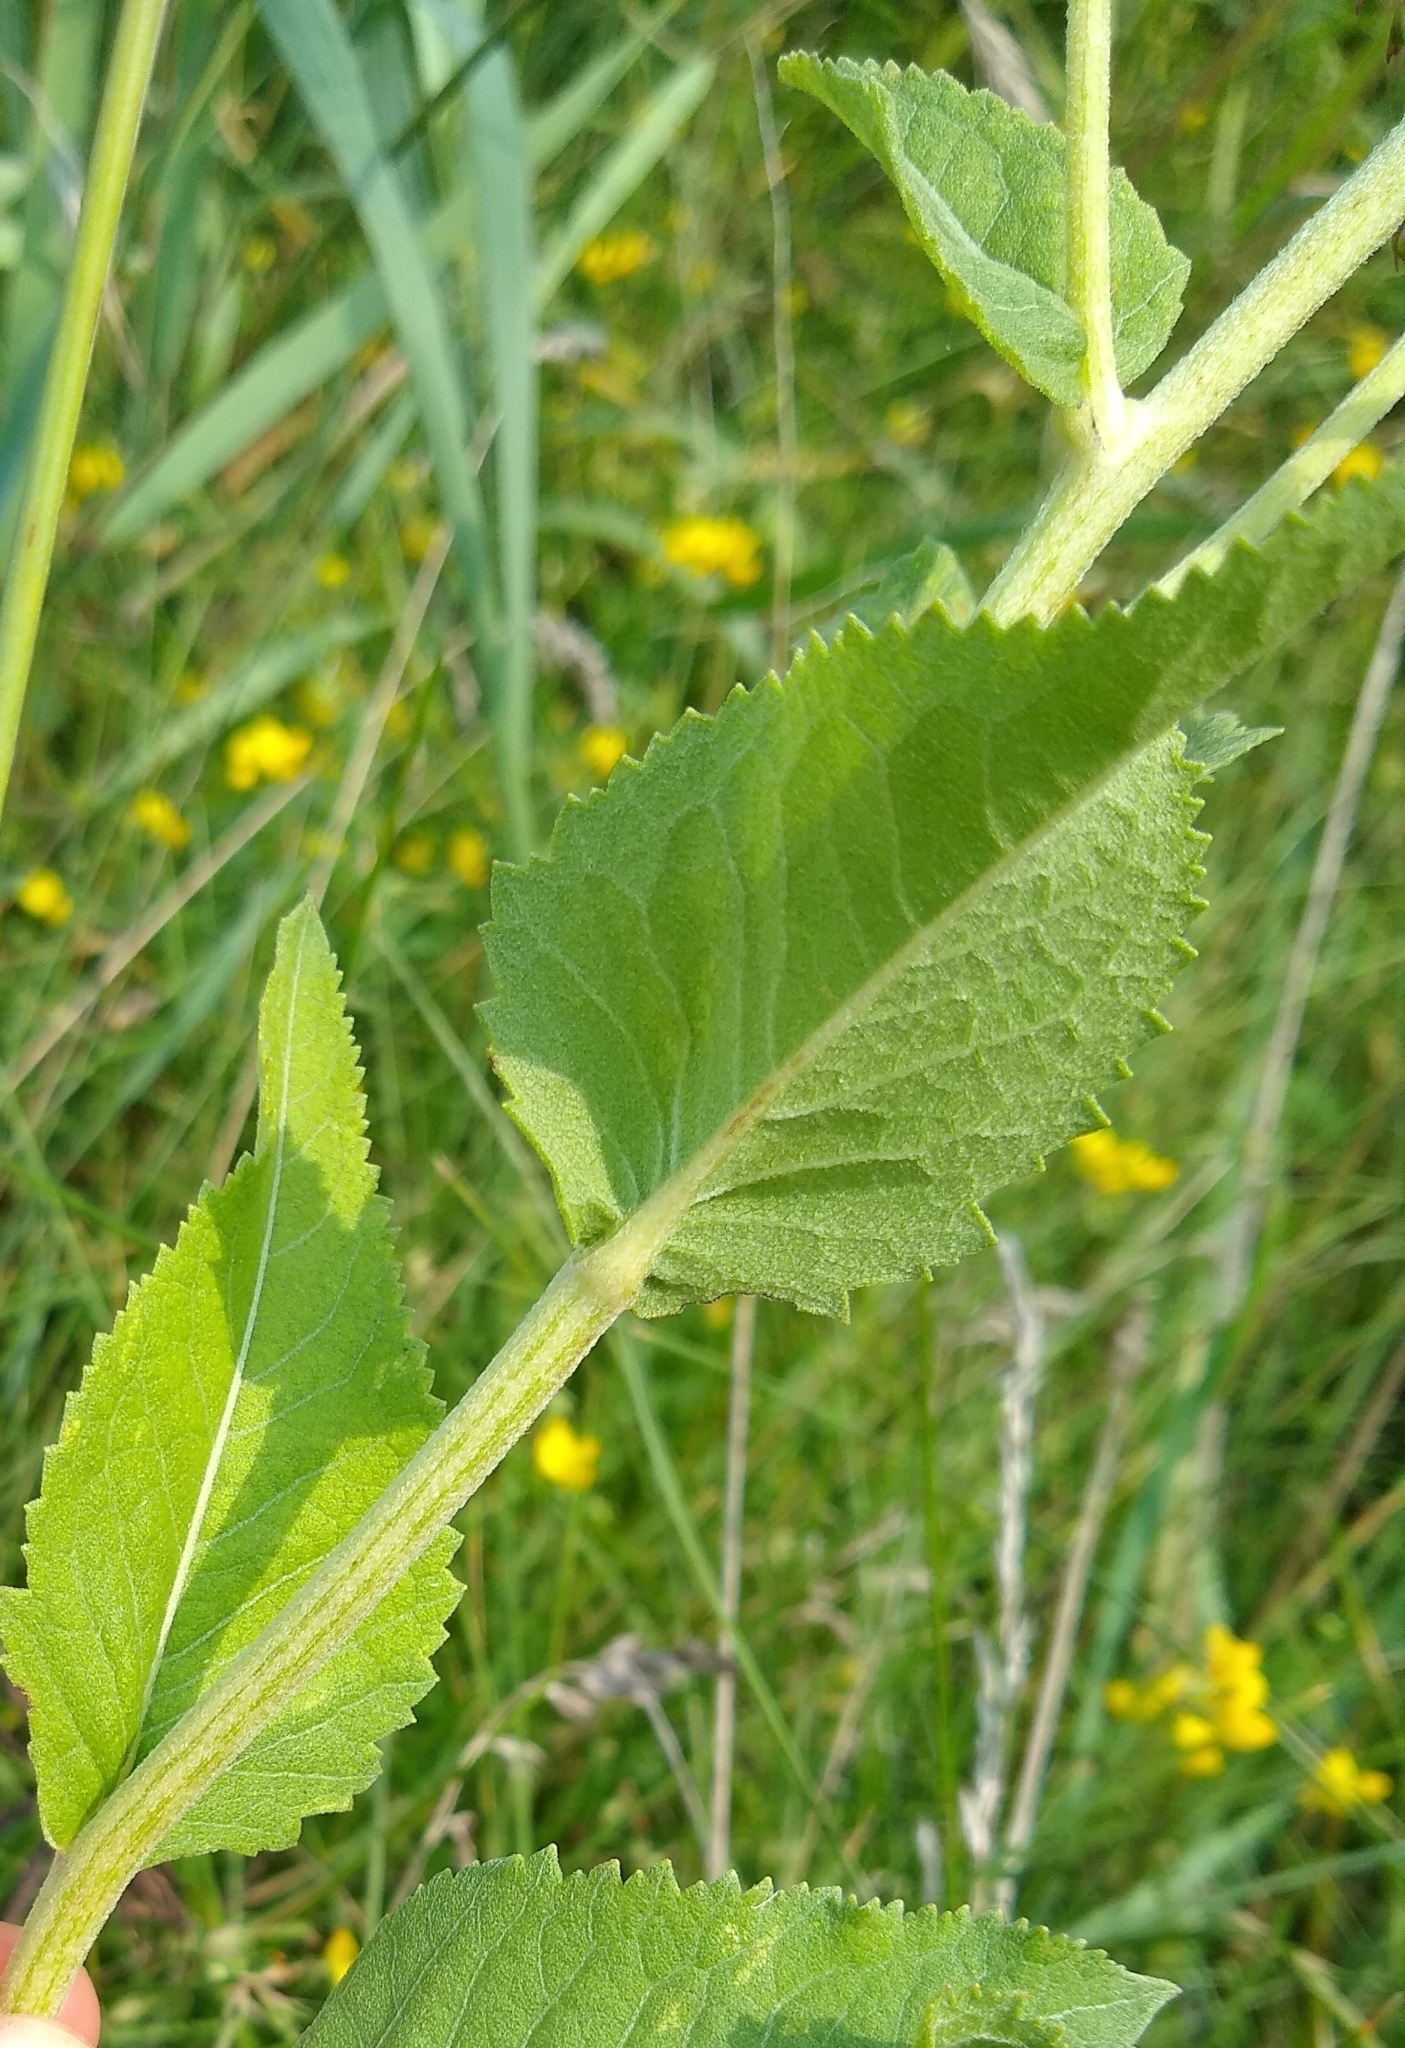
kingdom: Plantae
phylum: Tracheophyta
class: Magnoliopsida
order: Asterales
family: Asteraceae
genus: Parthenium
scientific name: Parthenium integrifolium
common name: American feverfew
